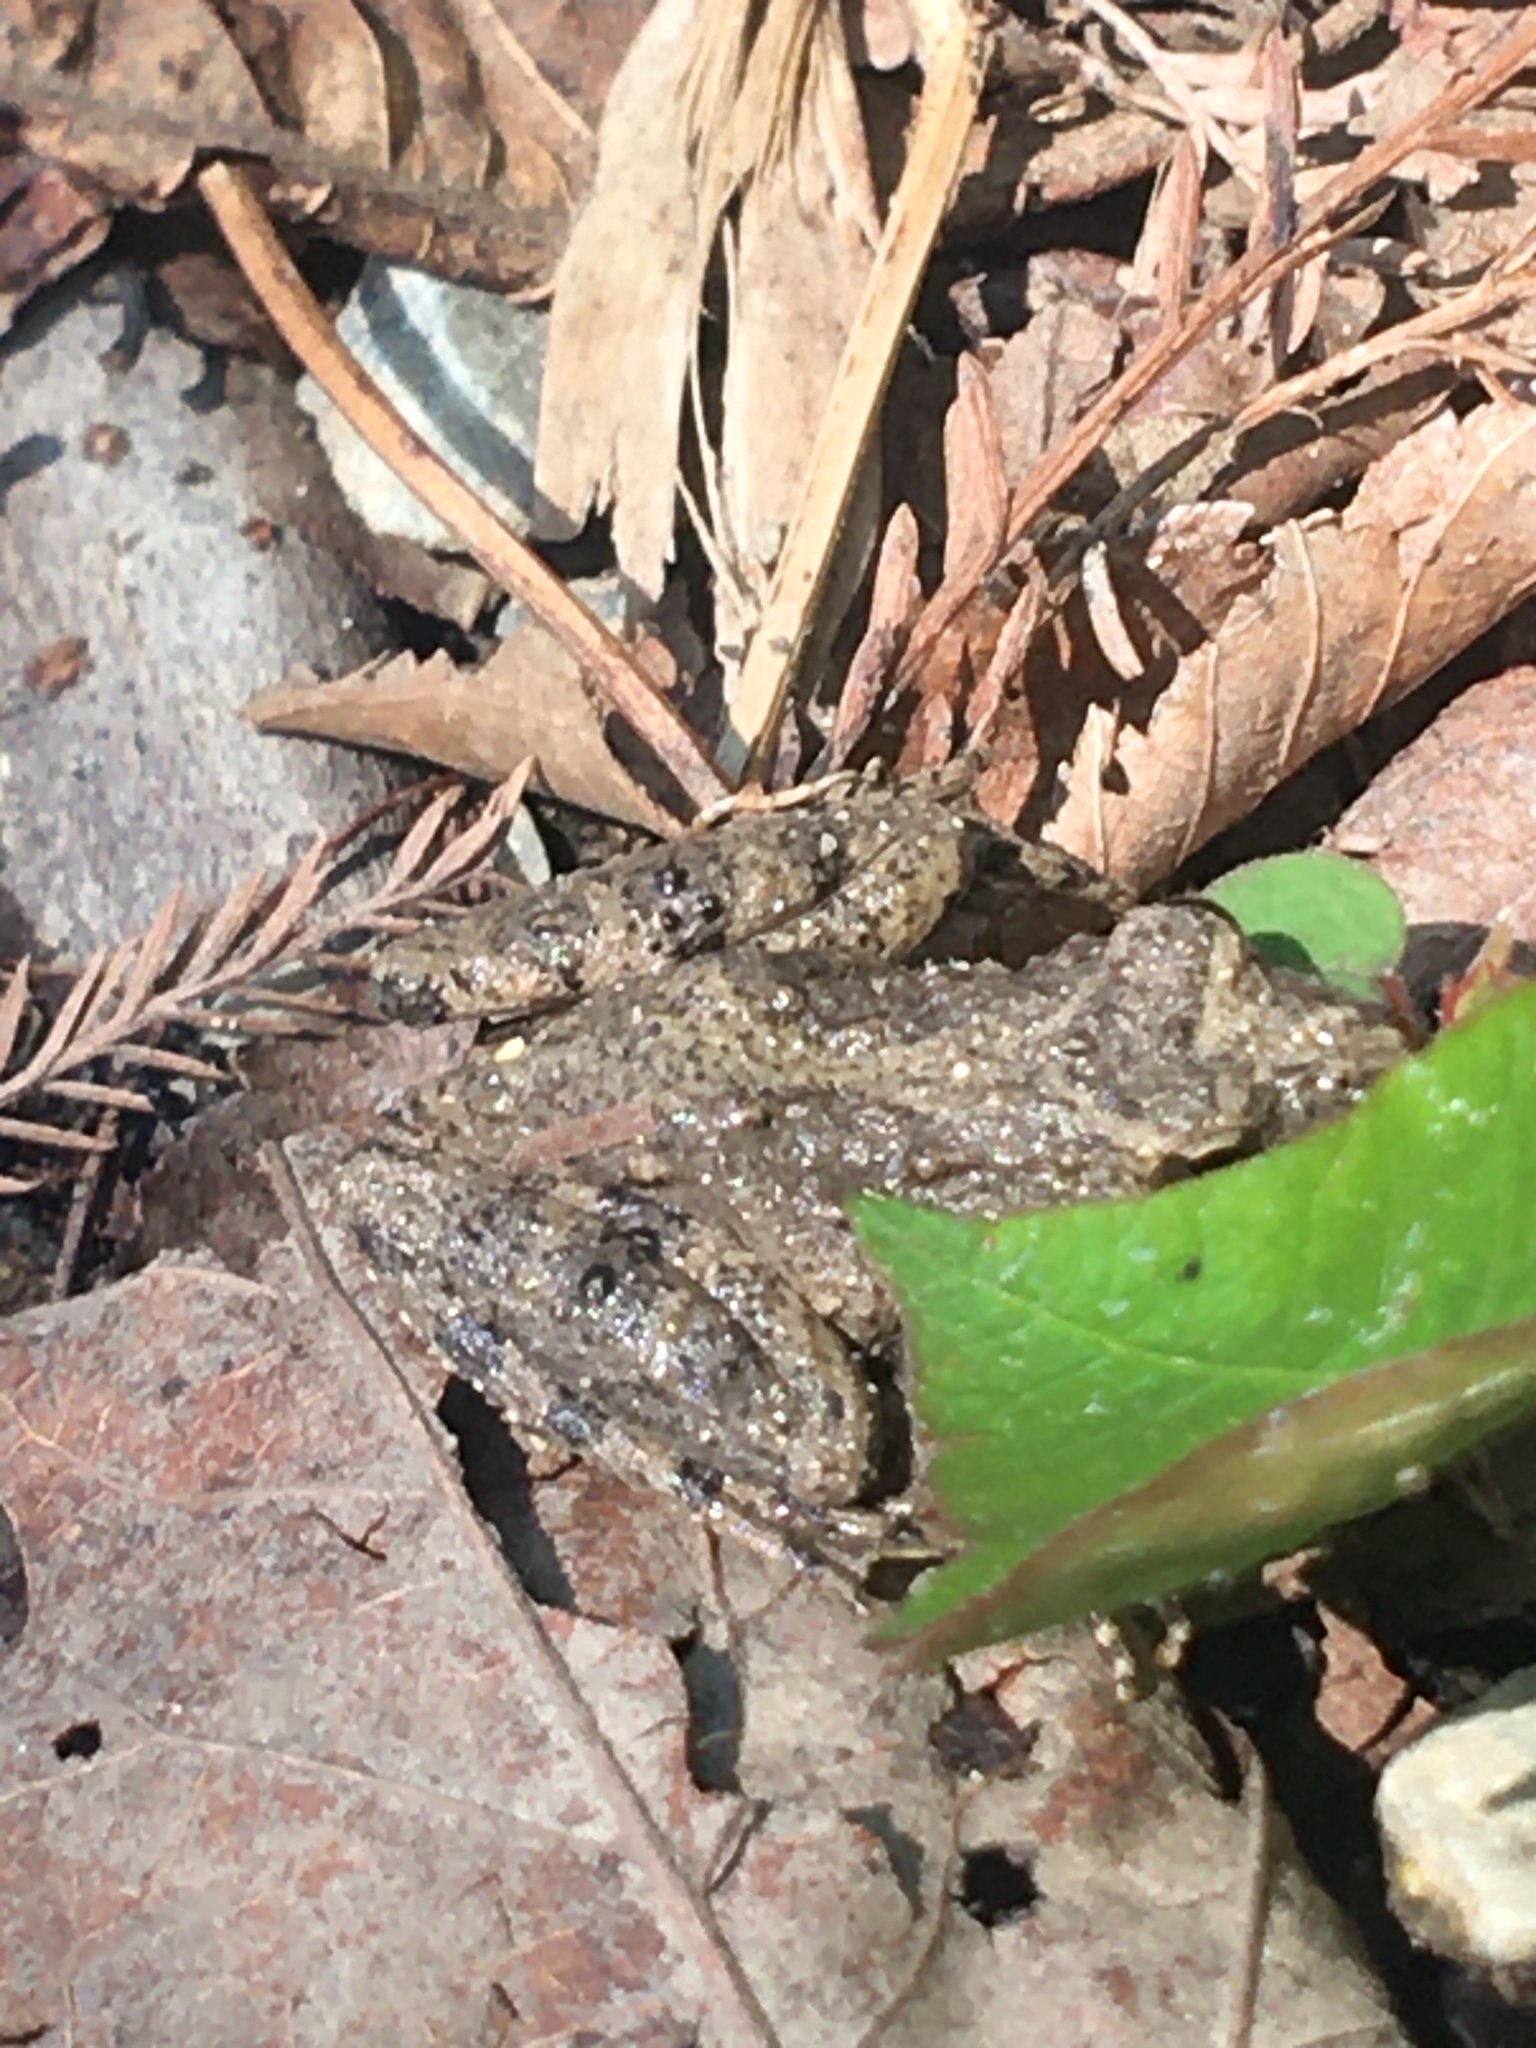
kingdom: Animalia
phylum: Chordata
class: Amphibia
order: Anura
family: Hylidae
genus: Acris
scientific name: Acris blanchardi
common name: Blanchard's cricket frog
